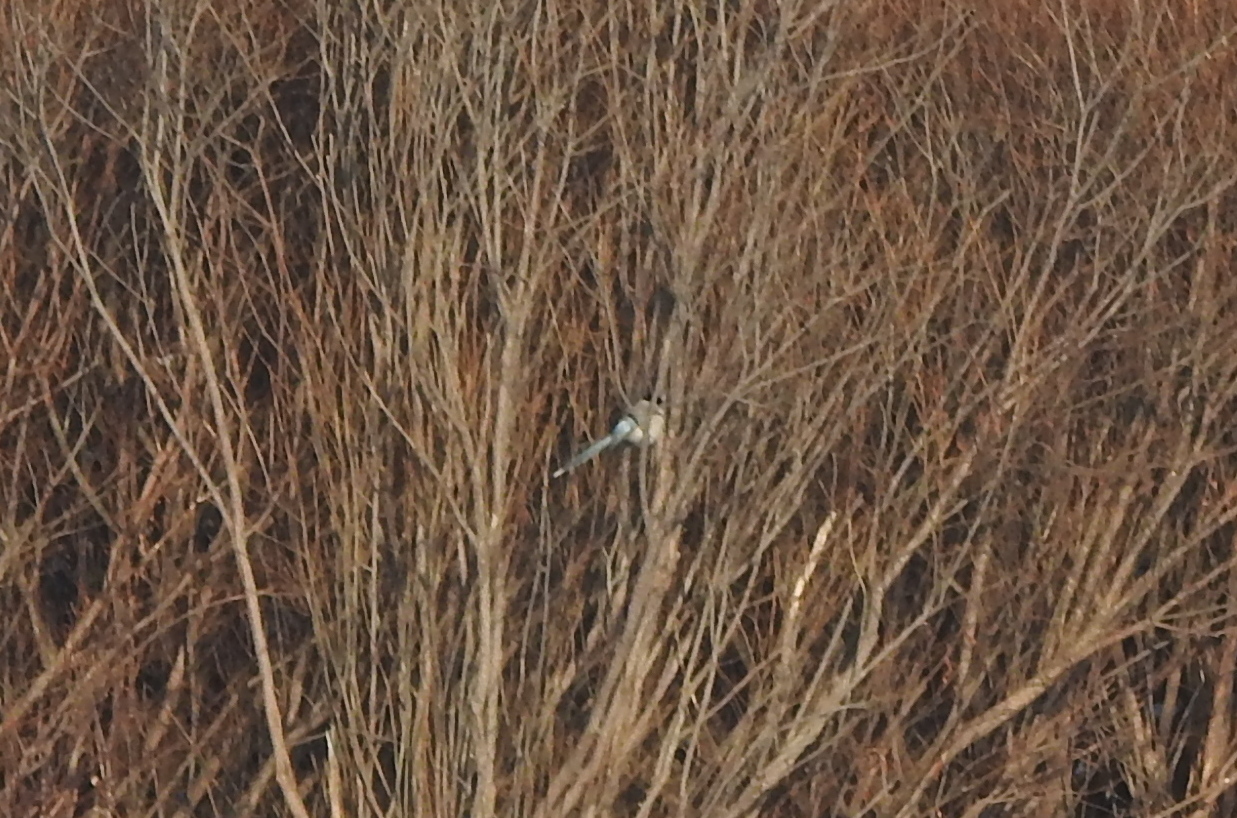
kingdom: Animalia
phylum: Chordata
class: Aves
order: Passeriformes
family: Corvidae
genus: Cyanopica
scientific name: Cyanopica cyanus
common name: Azure-winged magpie
